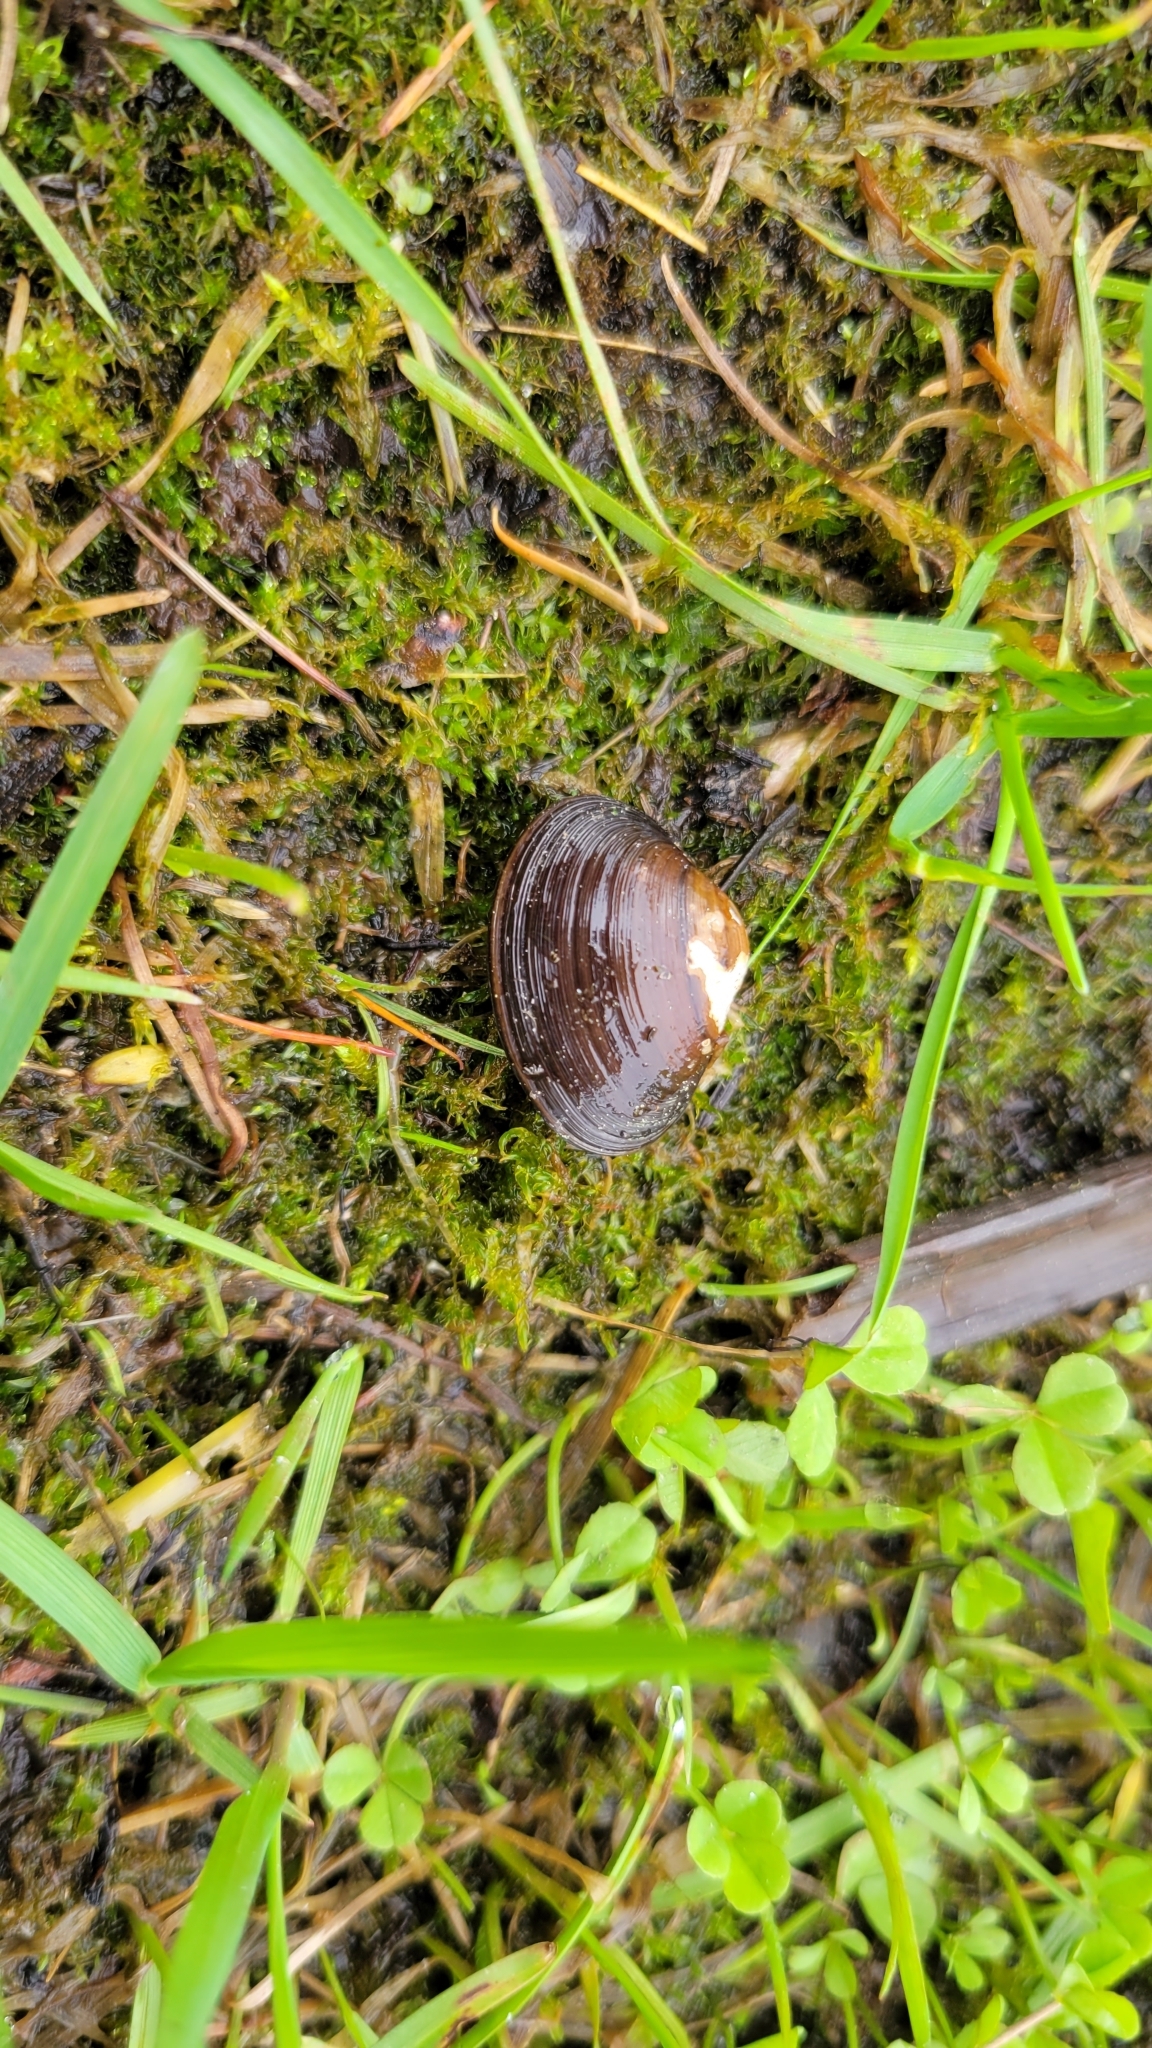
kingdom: Animalia
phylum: Mollusca
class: Bivalvia
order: Sphaeriida
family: Sphaeriidae
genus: Sphaerium
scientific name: Sphaerium simile
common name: Grooved fingernailclam
